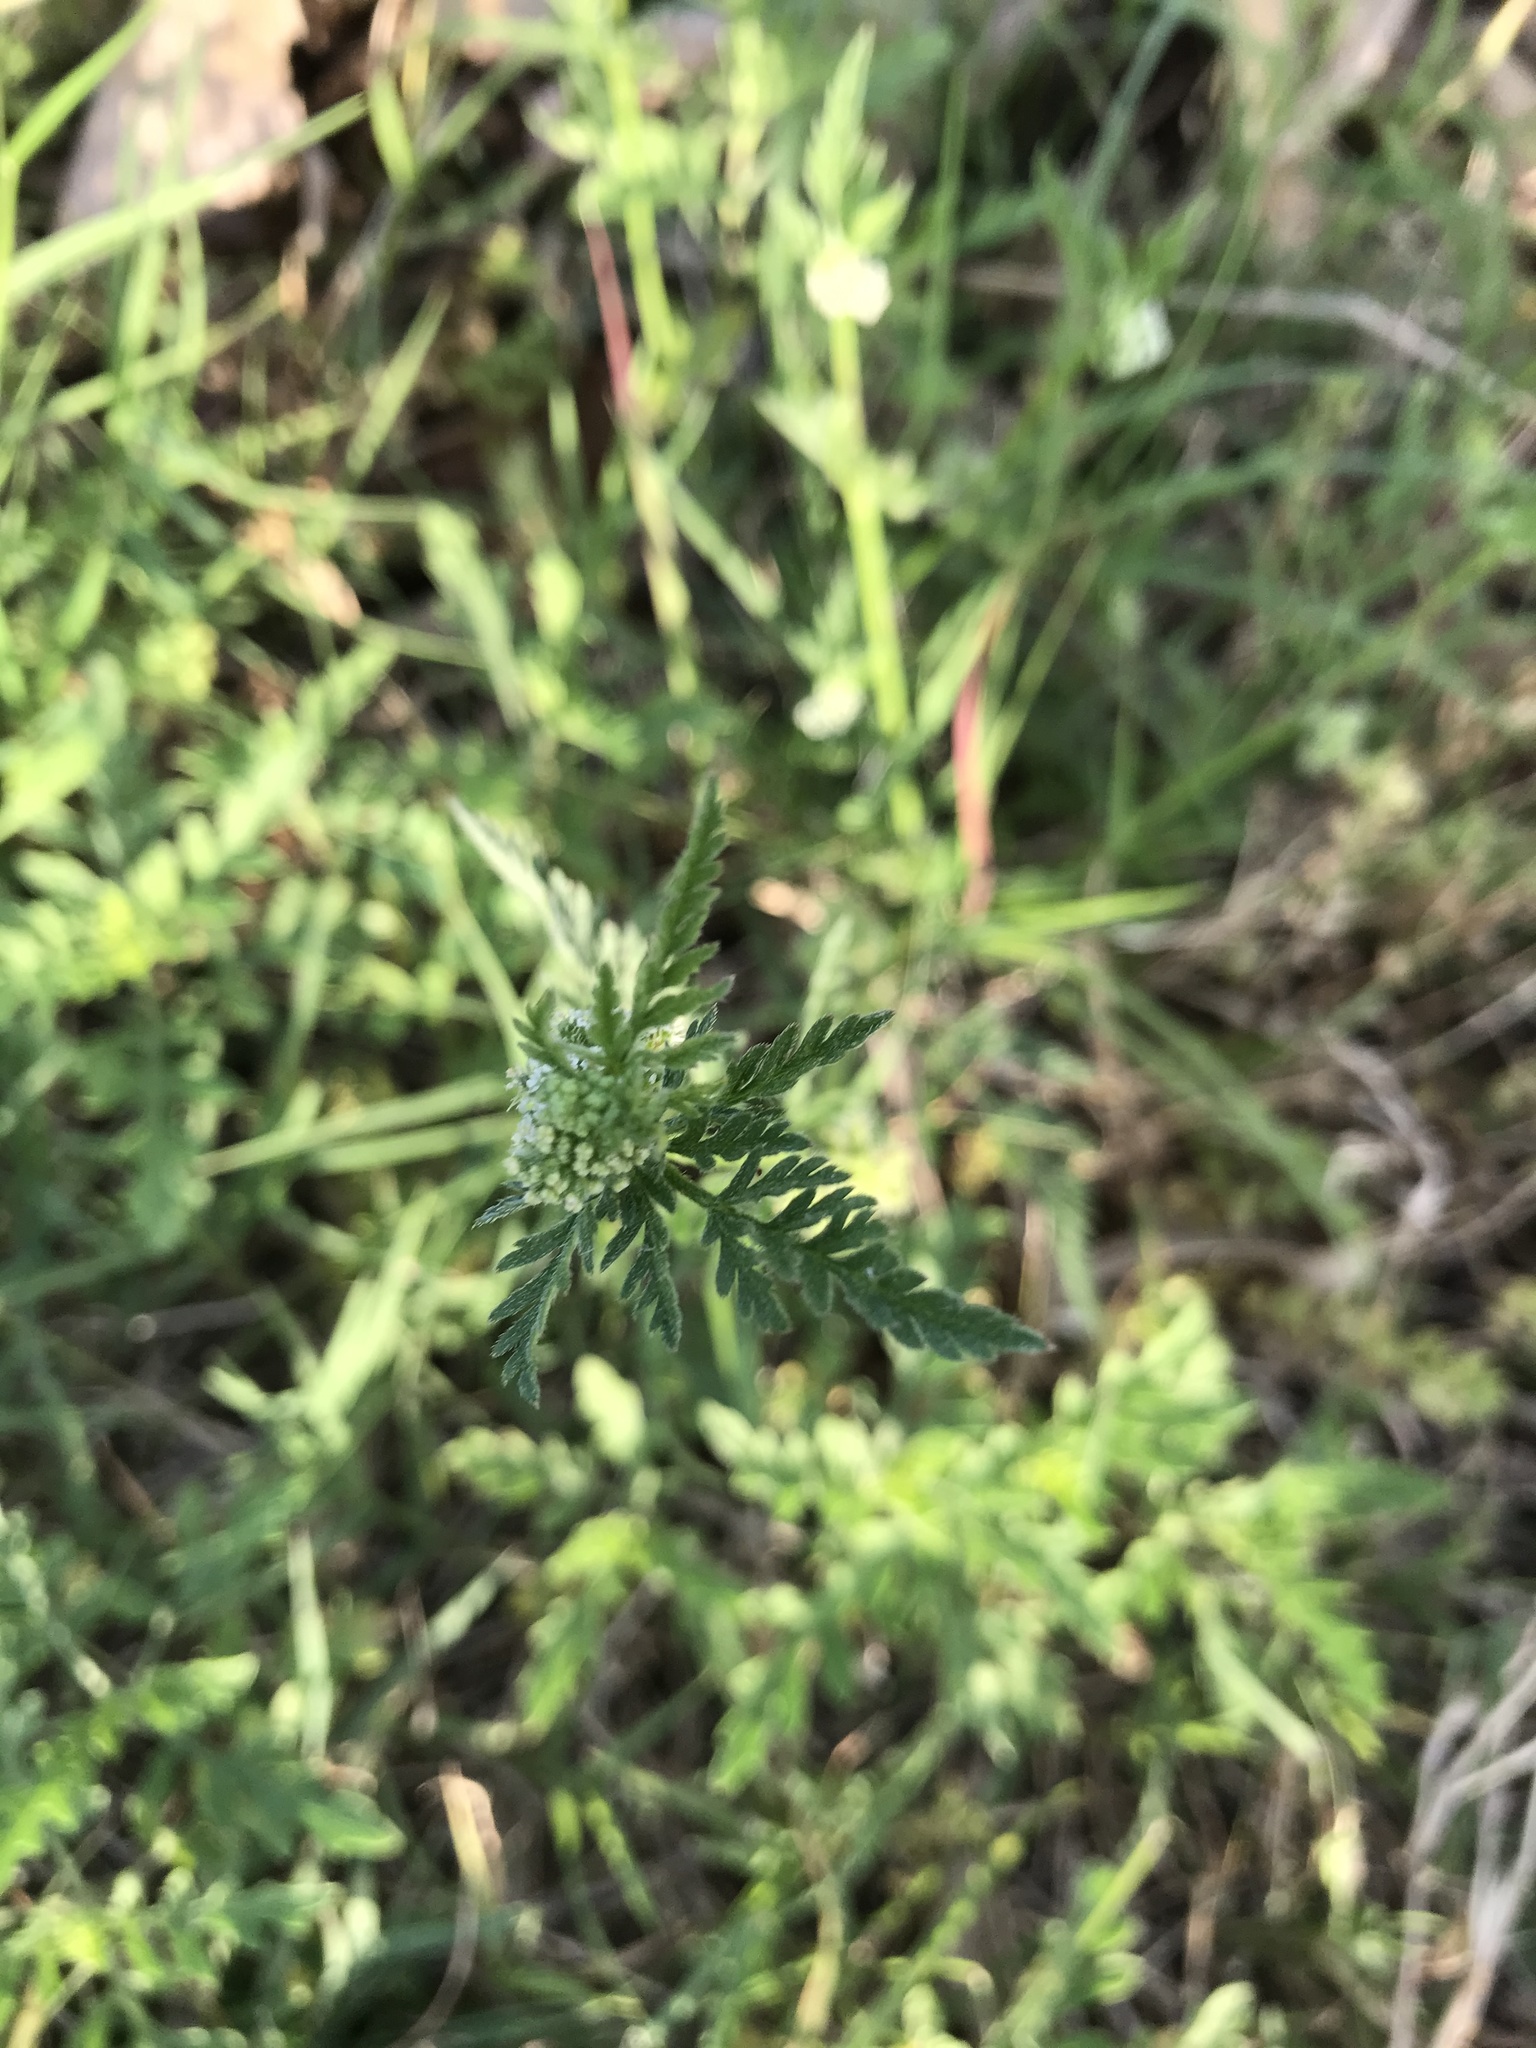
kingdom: Plantae
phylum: Tracheophyta
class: Magnoliopsida
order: Apiales
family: Apiaceae
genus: Torilis
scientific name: Torilis nodosa
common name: Knotted hedge-parsley
